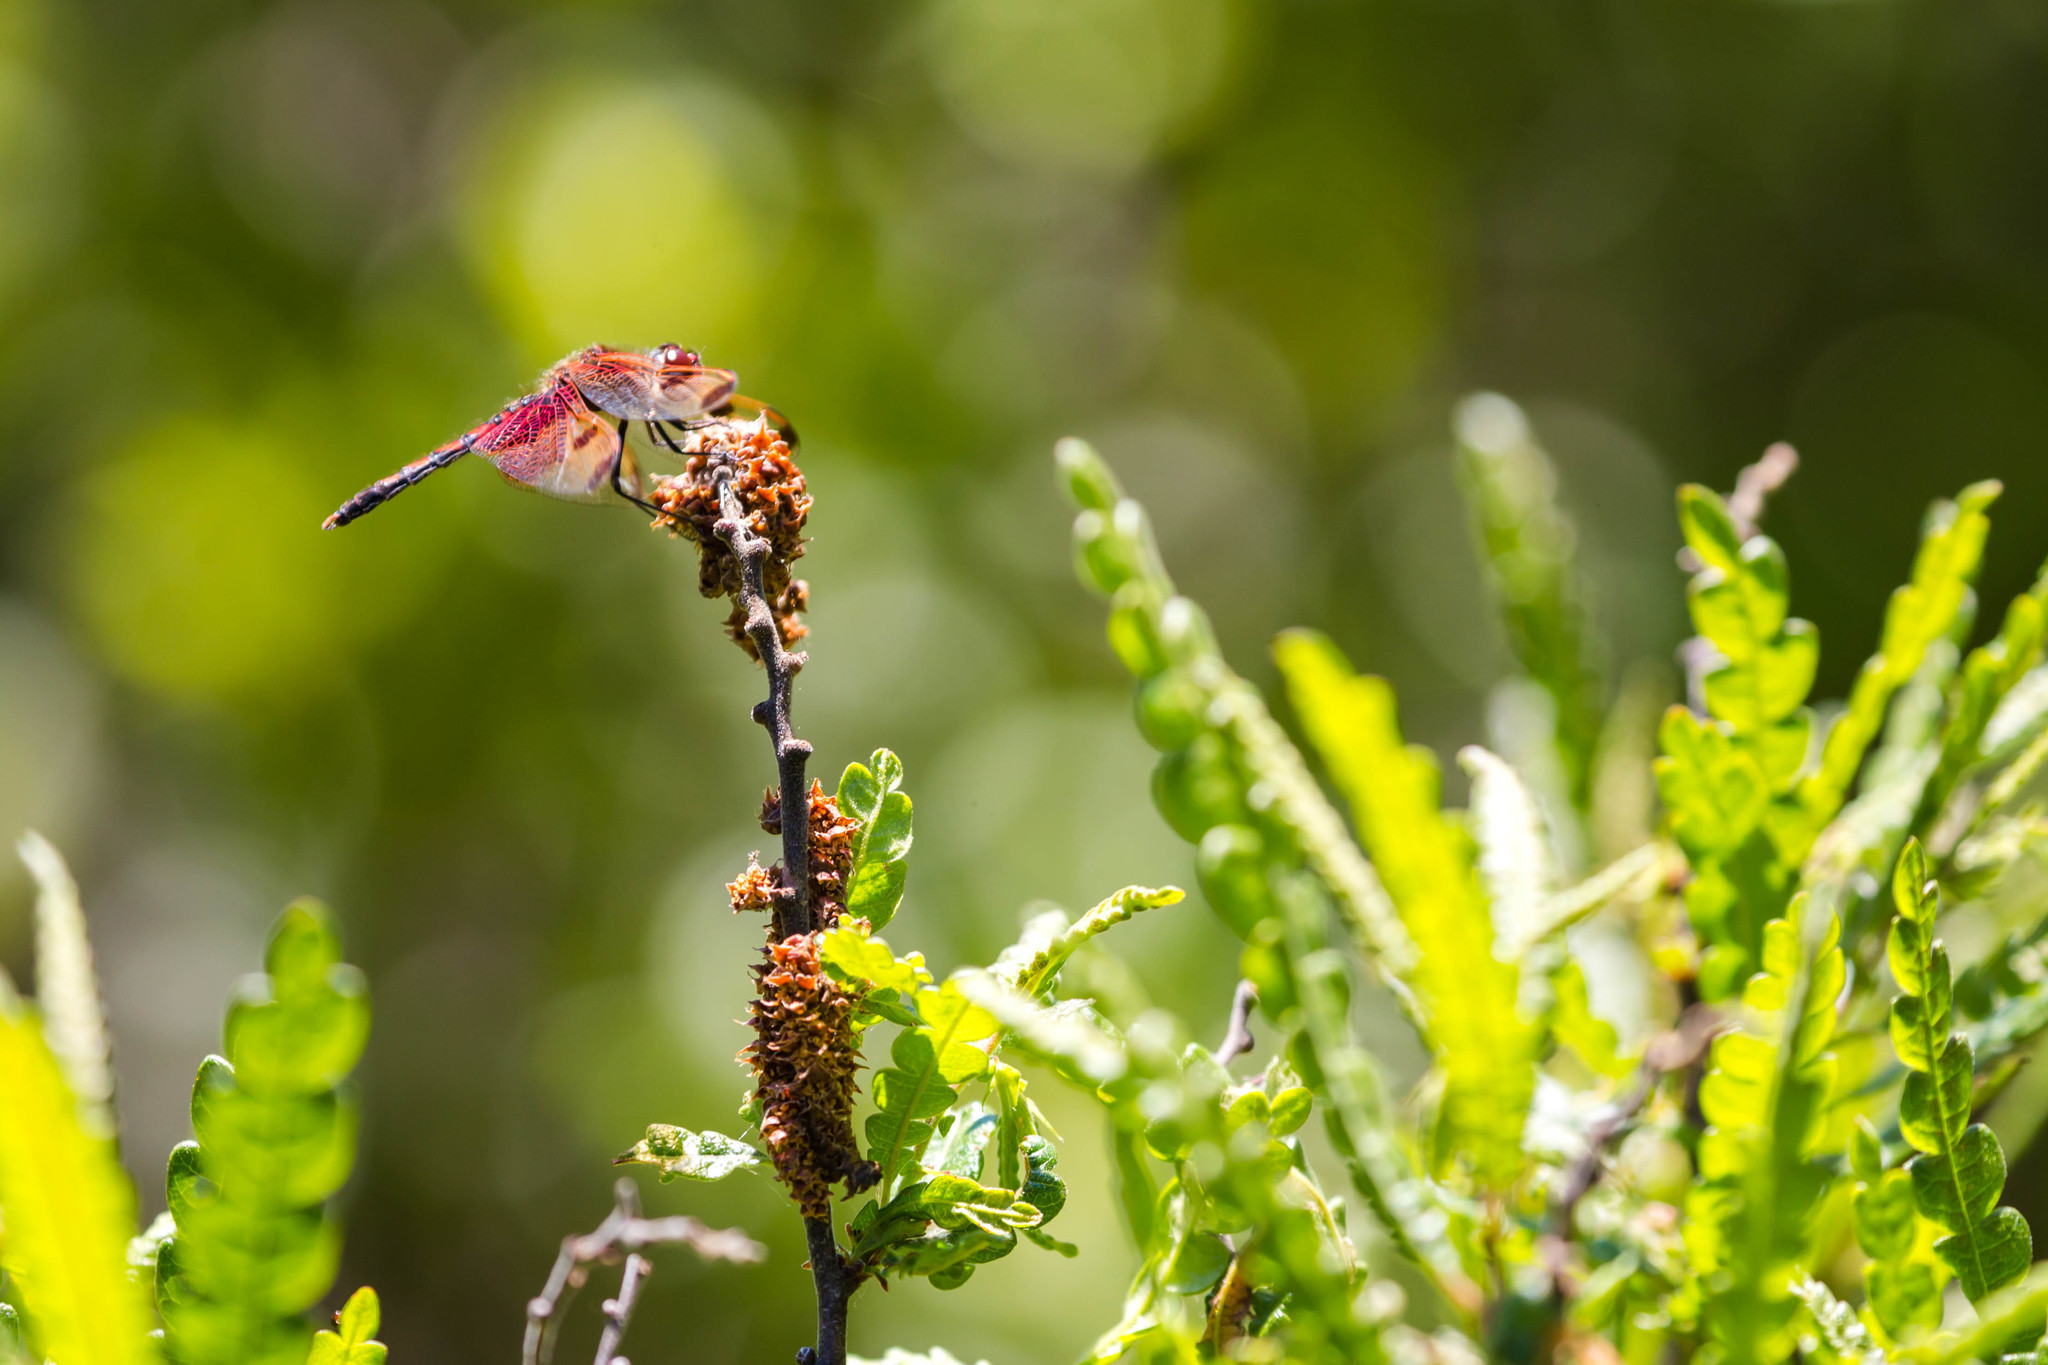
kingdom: Animalia
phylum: Arthropoda
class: Insecta
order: Odonata
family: Libellulidae
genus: Celithemis
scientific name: Celithemis elisa
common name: Calico pennant
